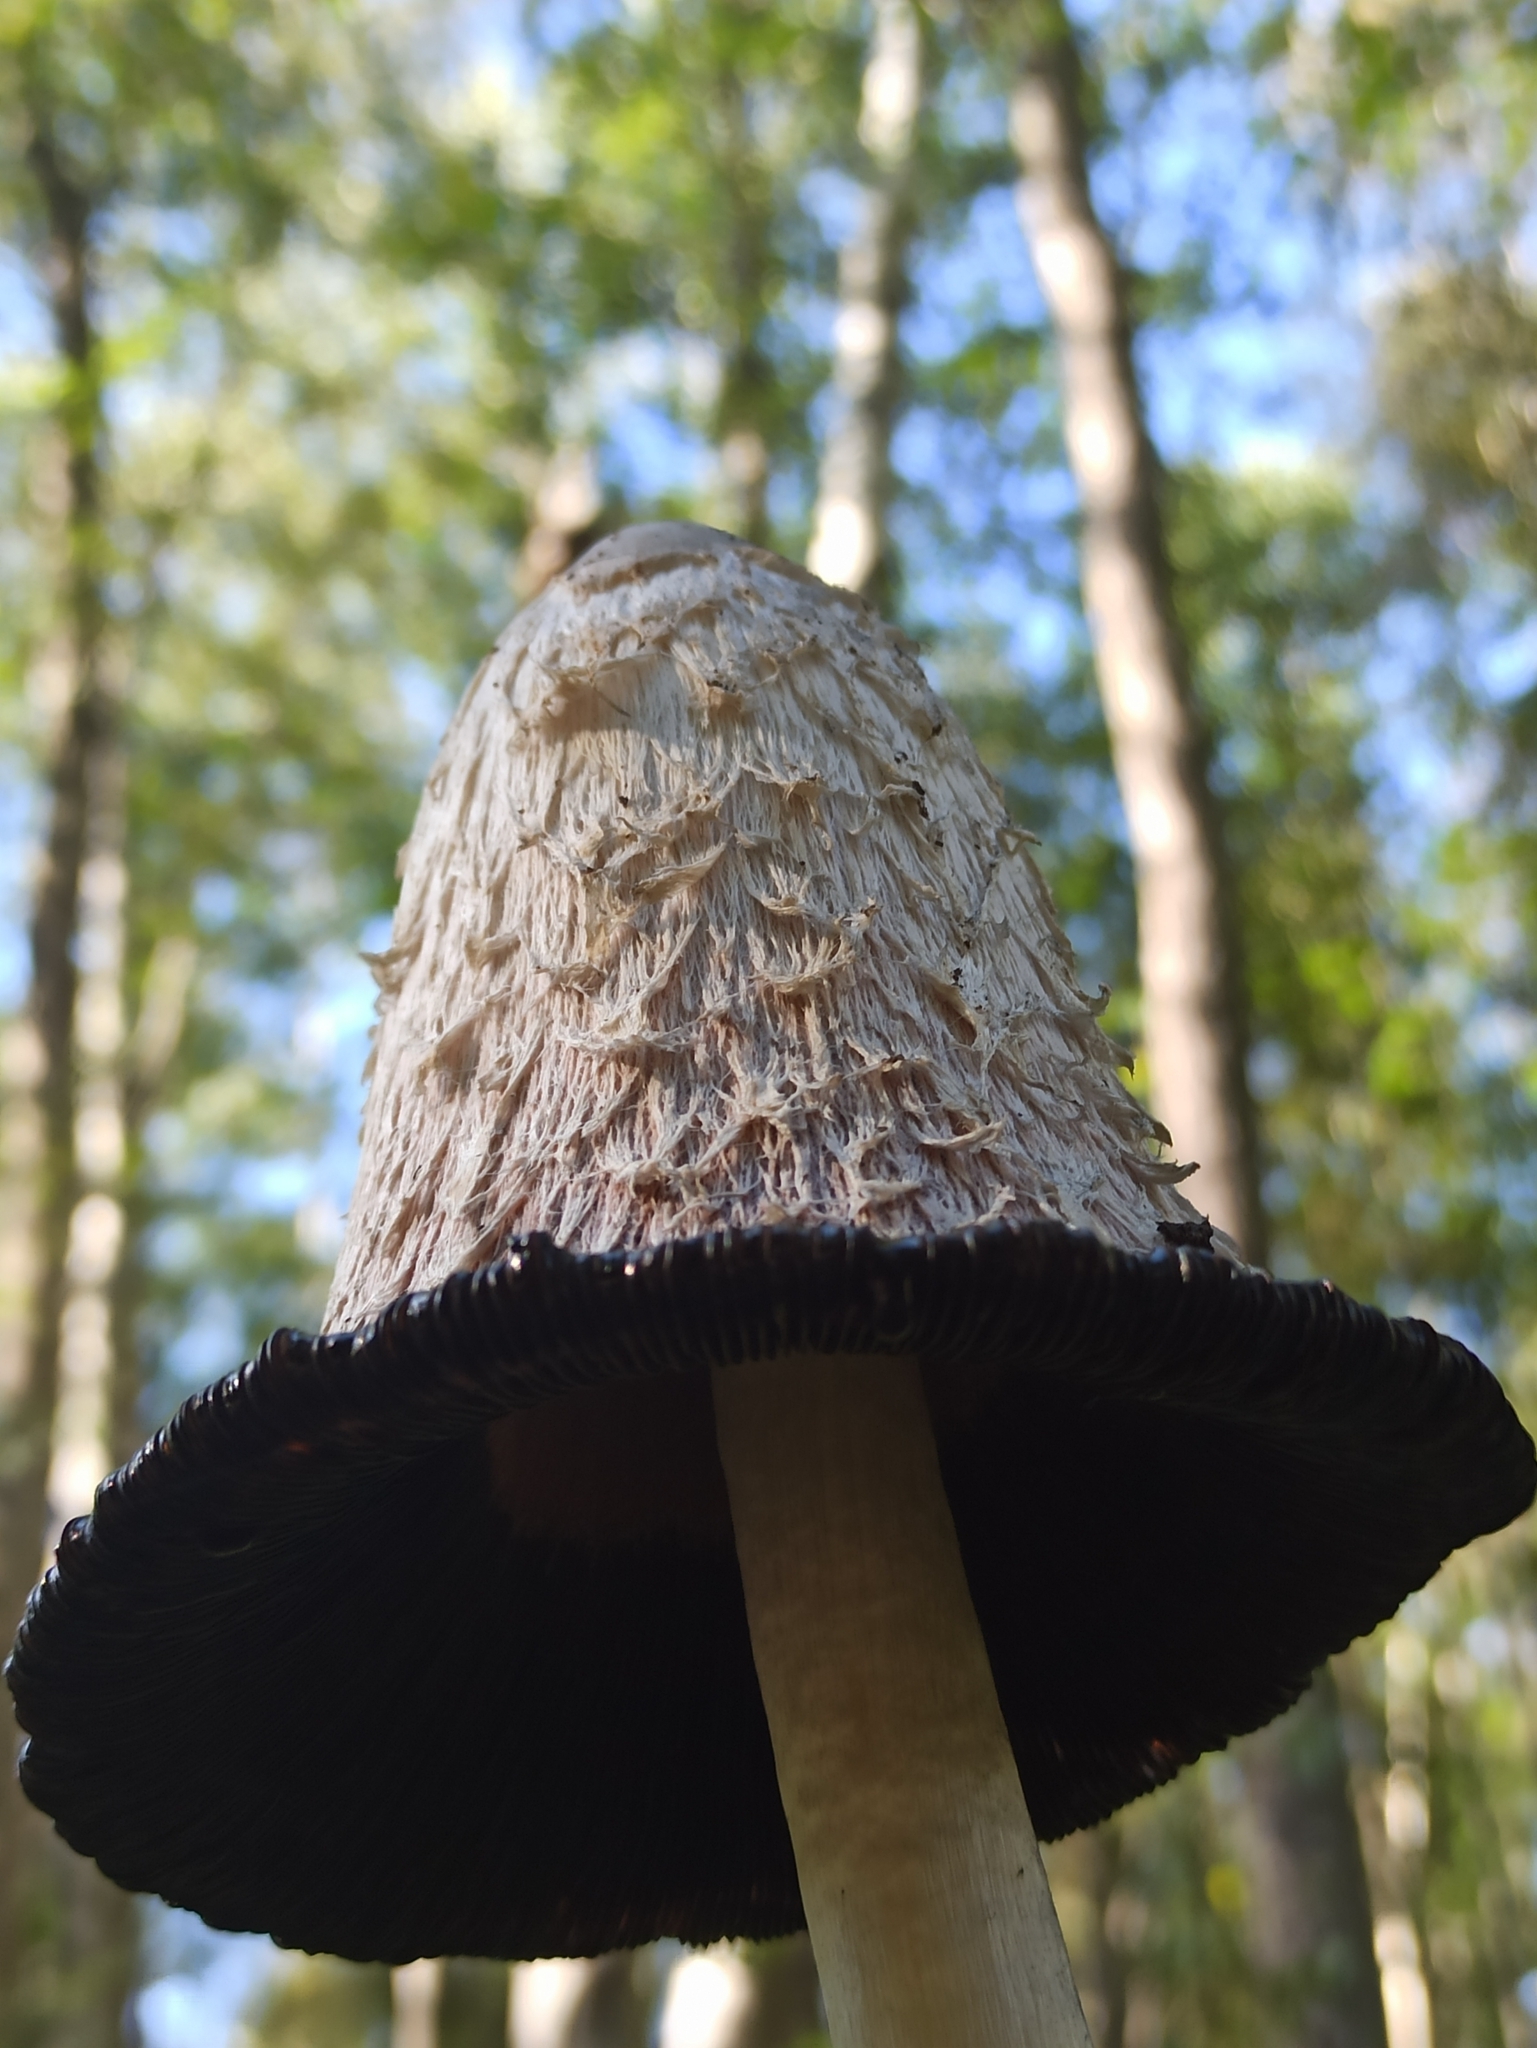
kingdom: Fungi
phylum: Basidiomycota
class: Agaricomycetes
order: Agaricales
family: Agaricaceae
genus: Coprinus
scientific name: Coprinus comatus
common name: Lawyer's wig
